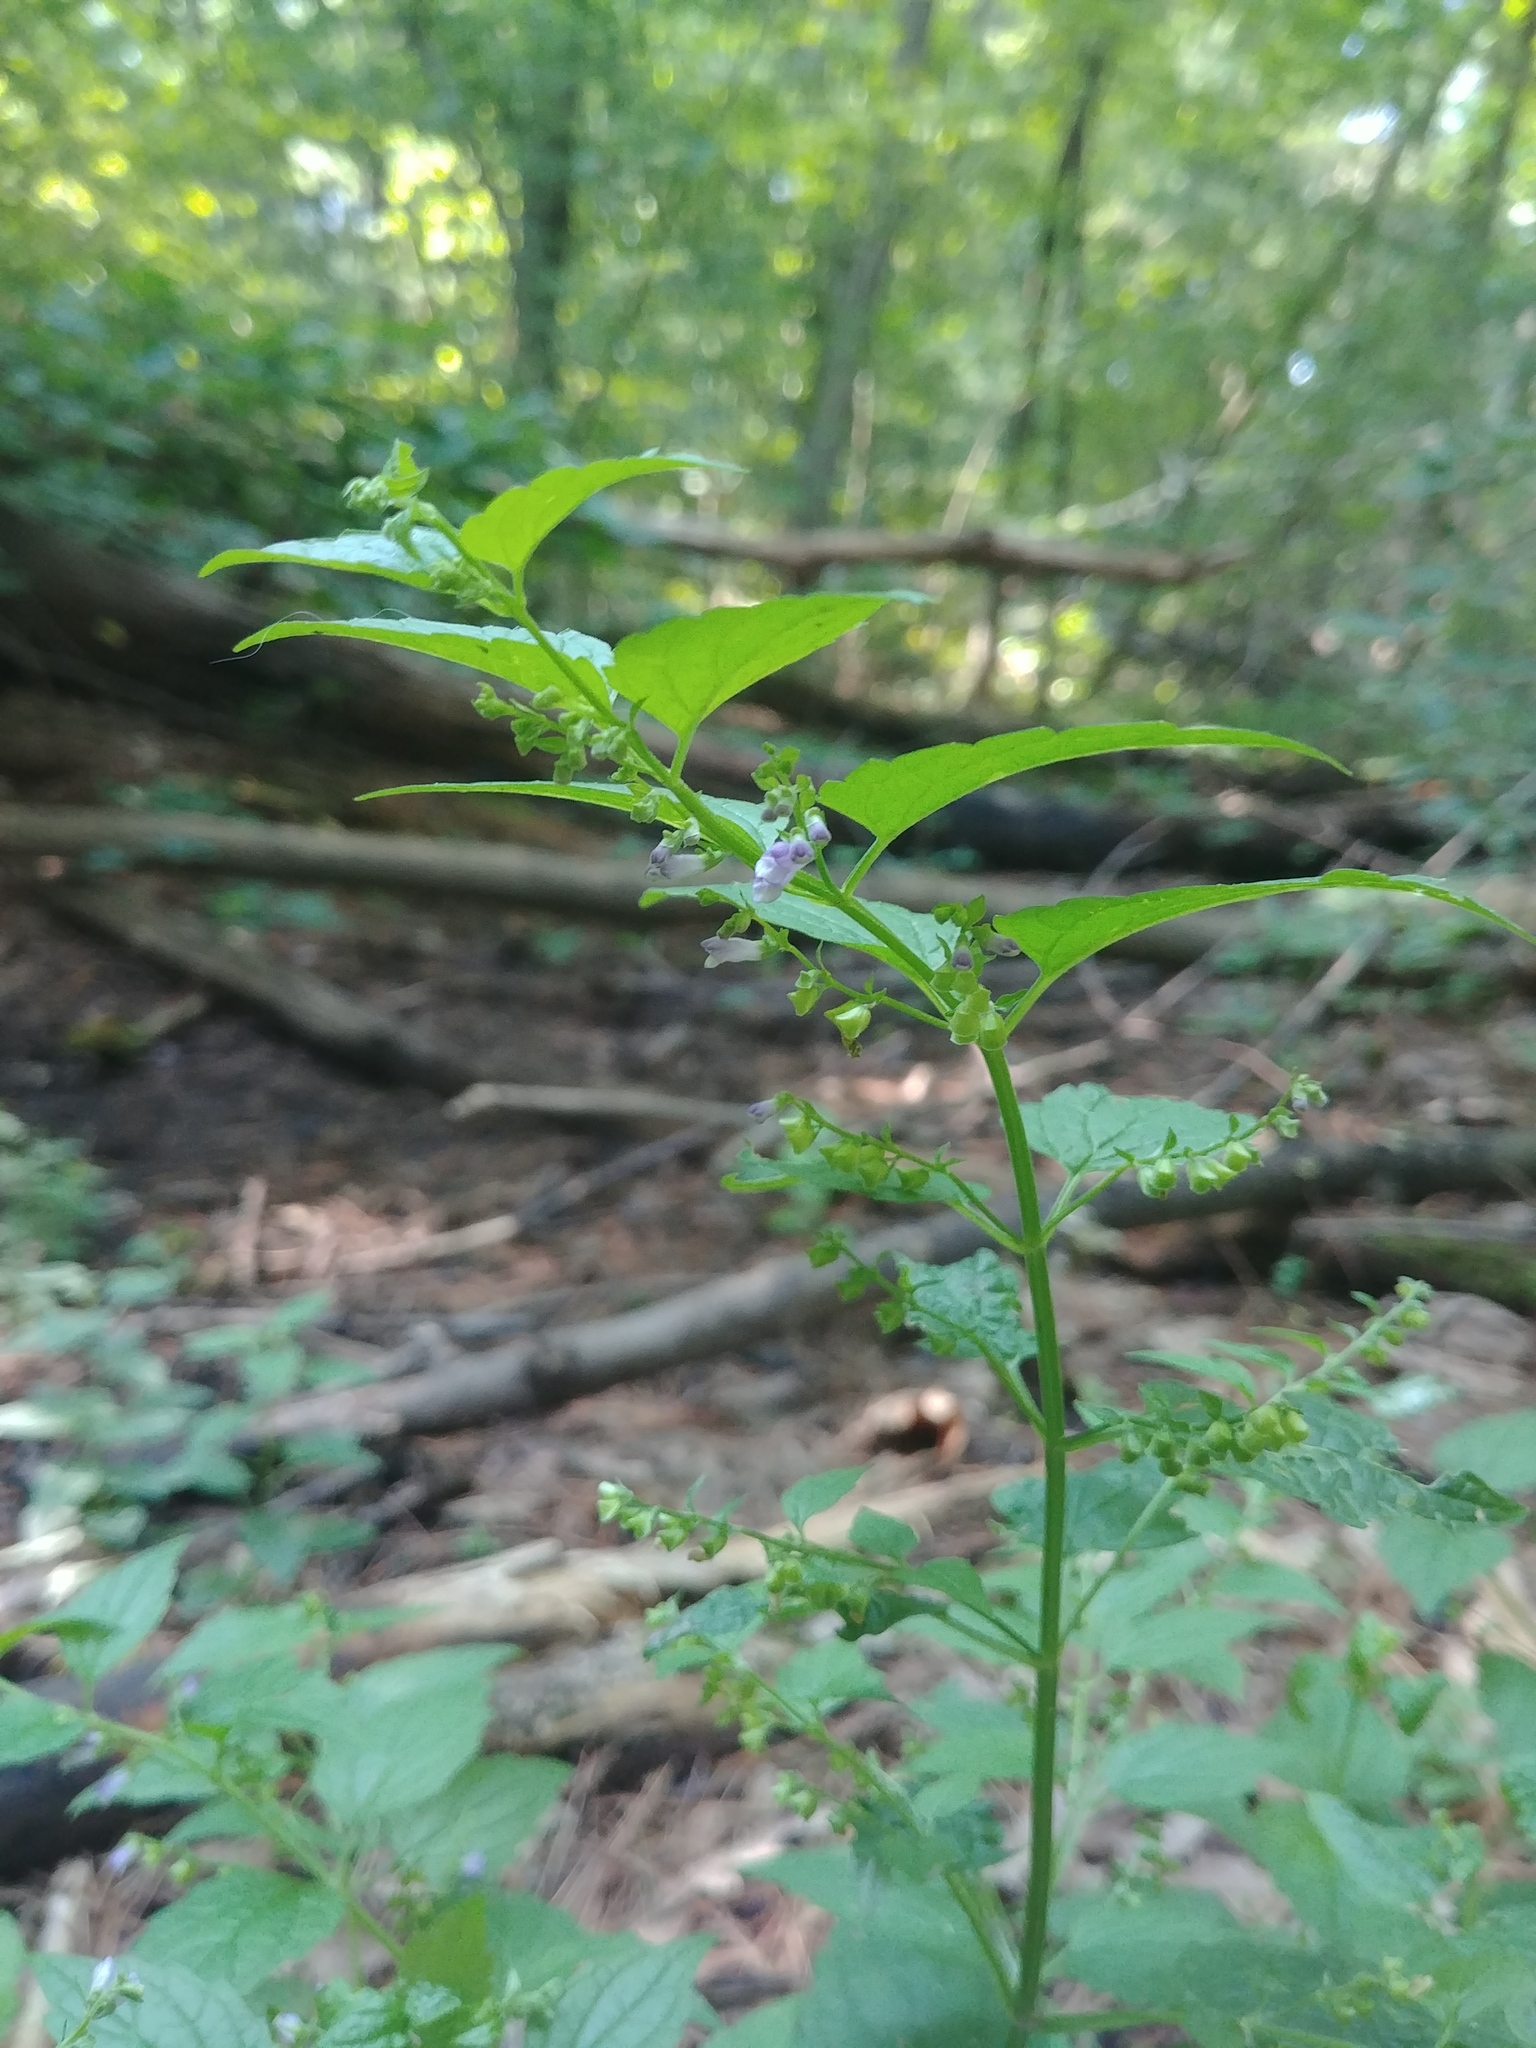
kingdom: Plantae
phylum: Tracheophyta
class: Magnoliopsida
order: Lamiales
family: Lamiaceae
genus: Scutellaria
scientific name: Scutellaria lateriflora
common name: Blue skullcap
